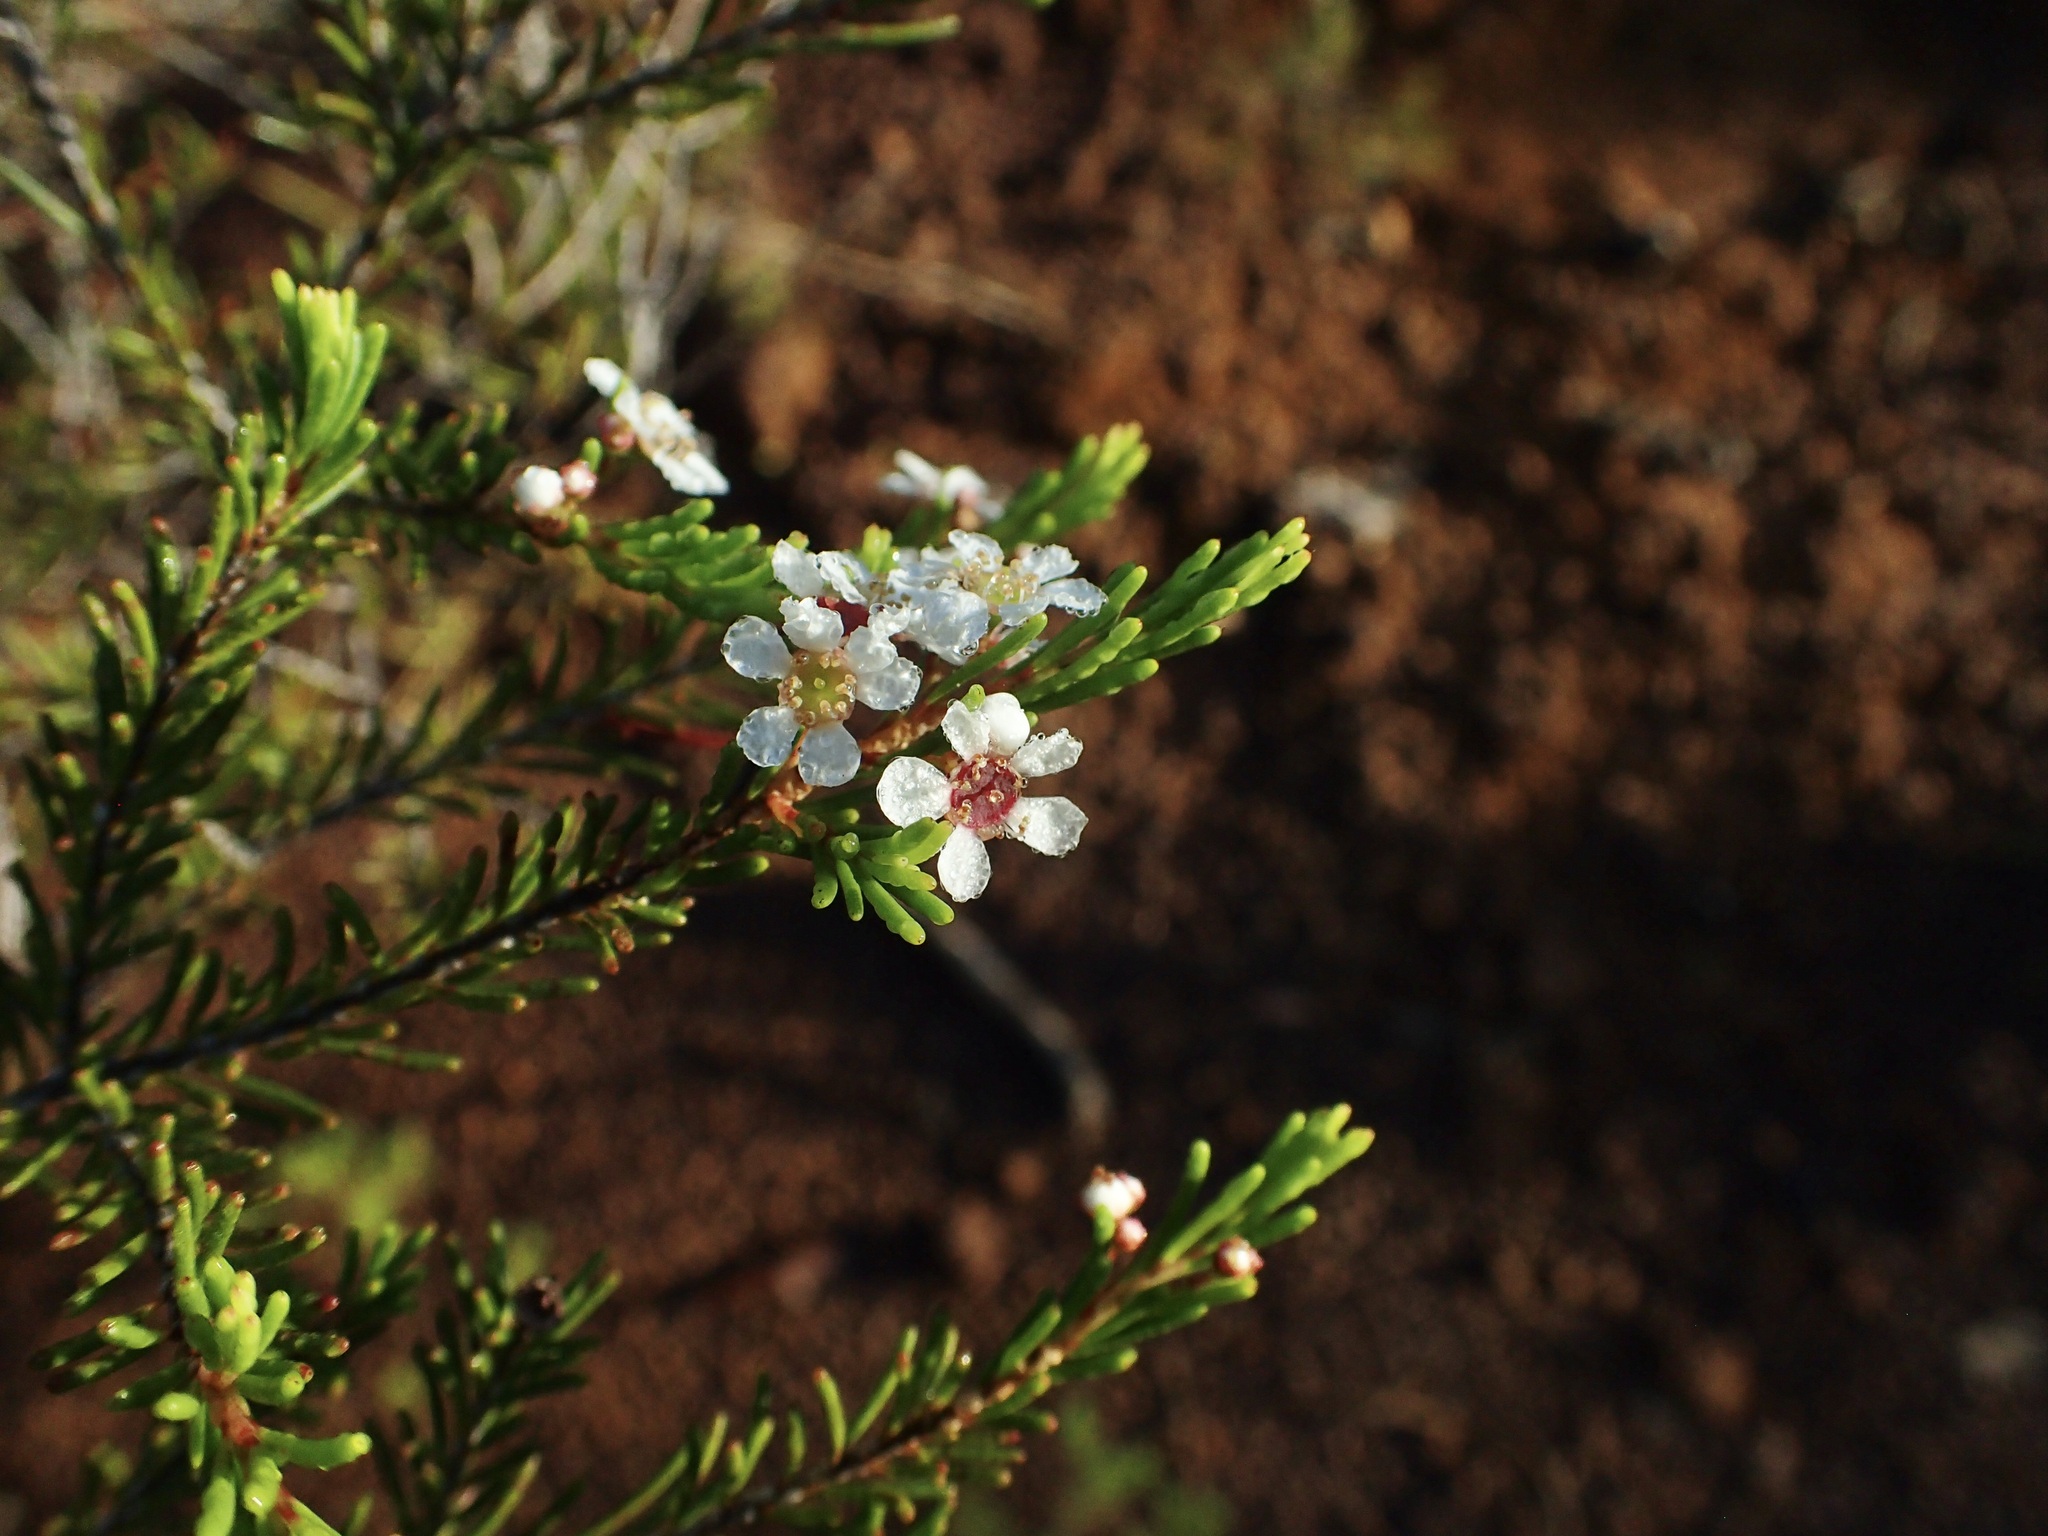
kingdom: Plantae
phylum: Tracheophyta
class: Magnoliopsida
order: Myrtales
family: Myrtaceae
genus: Sannantha
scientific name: Sannantha leratii
